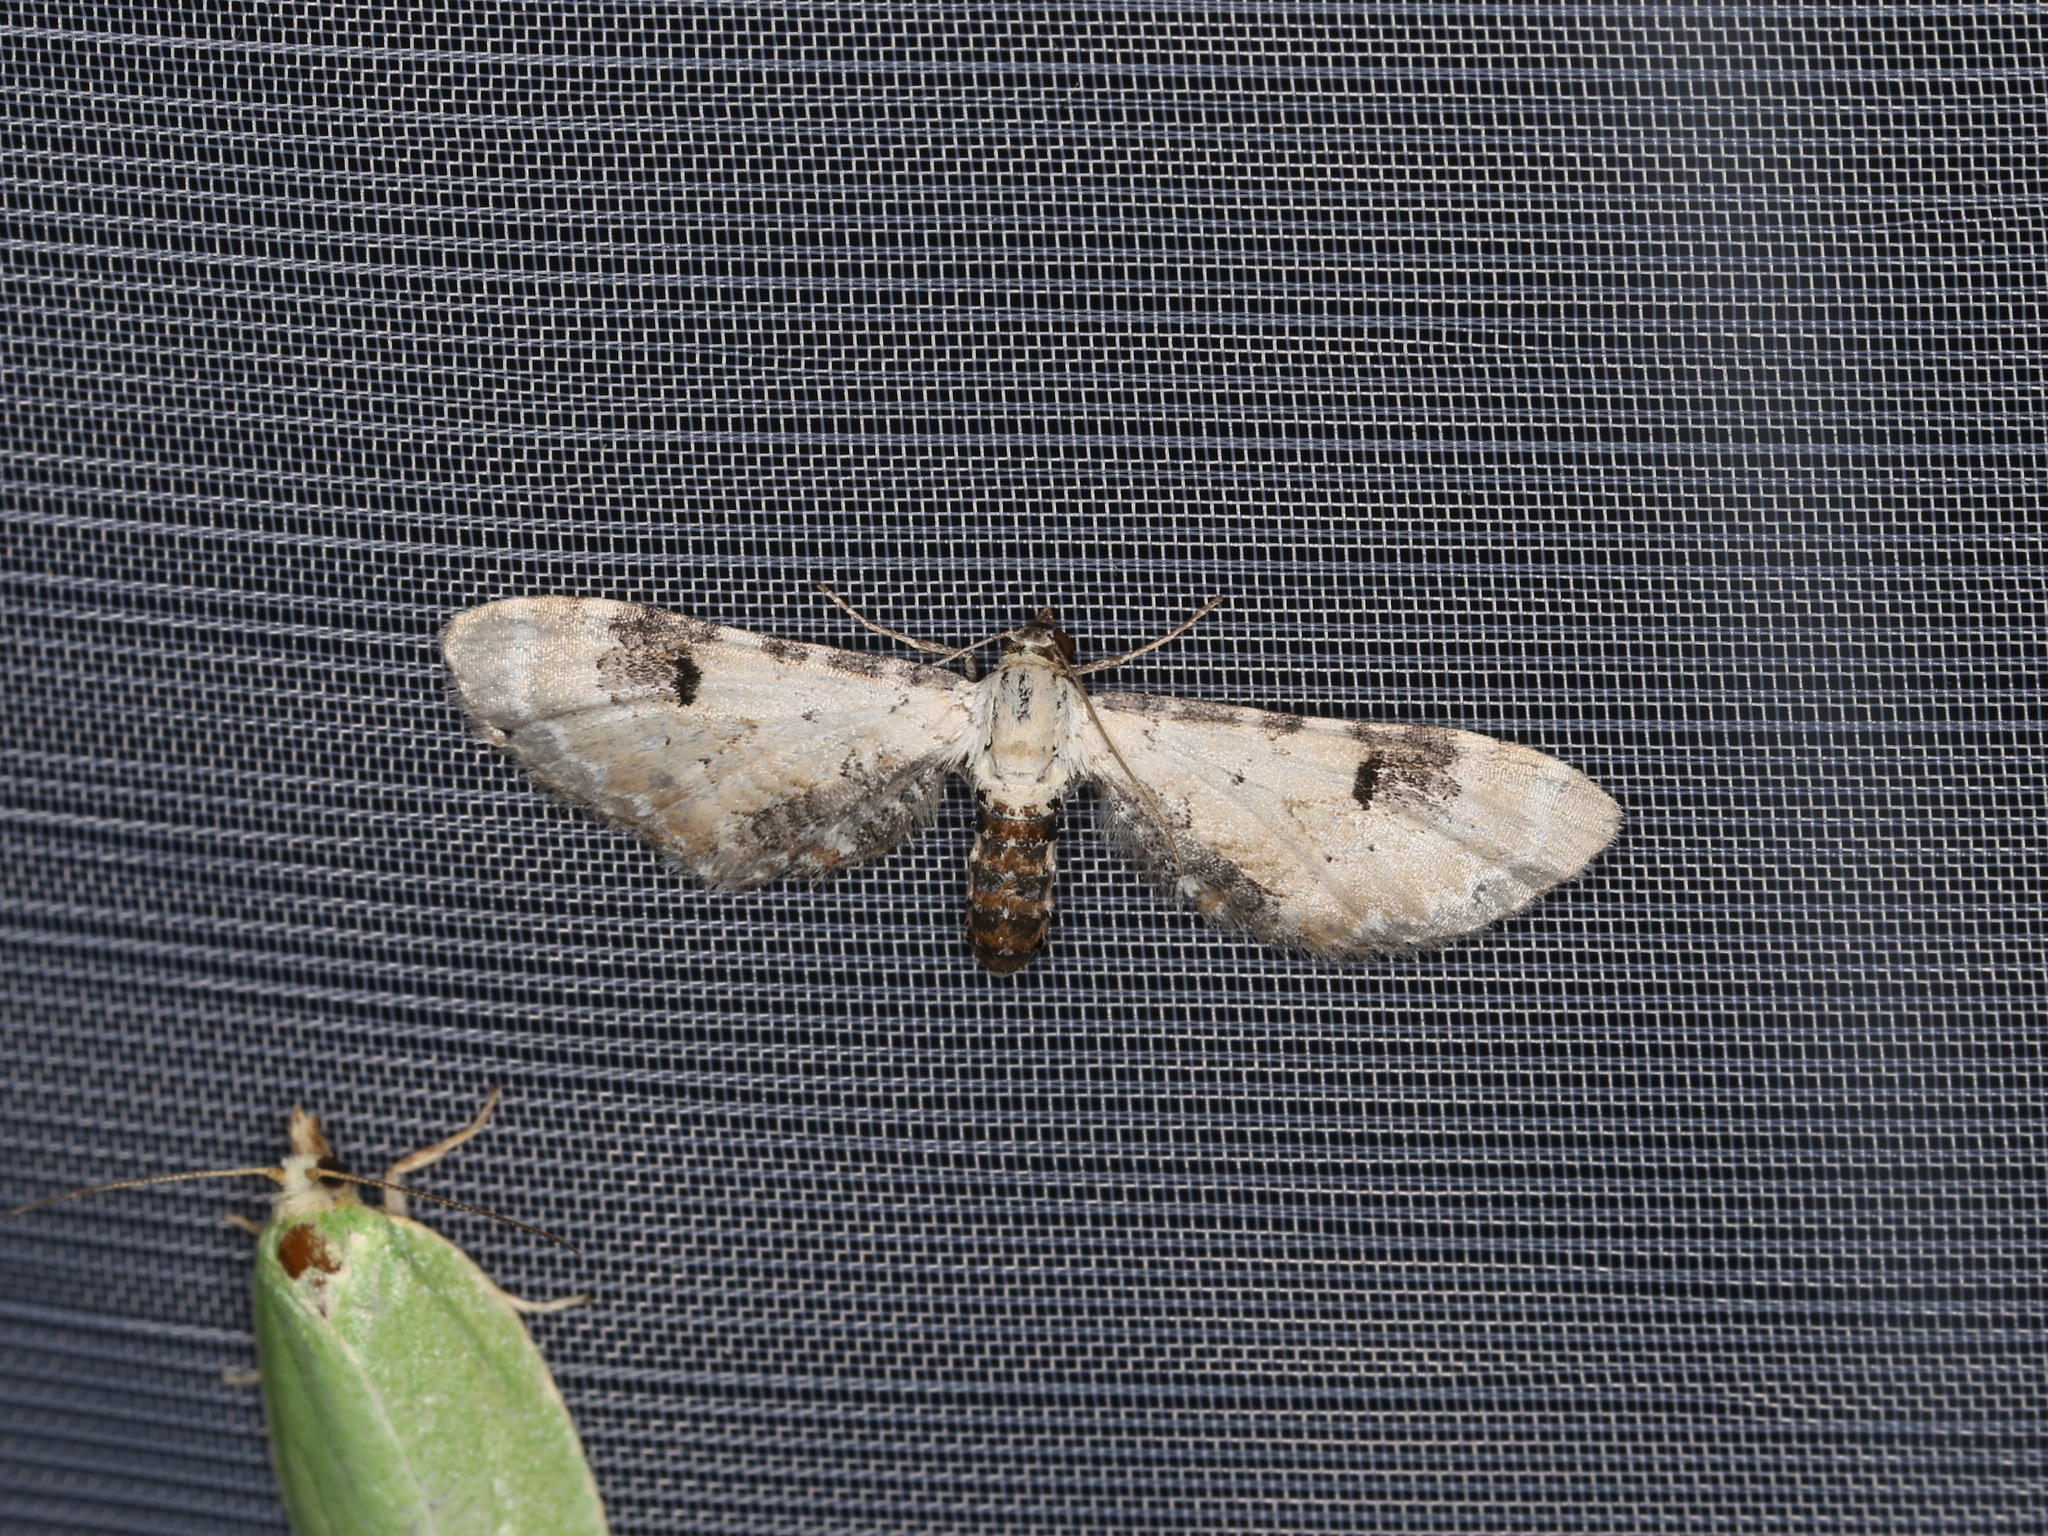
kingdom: Animalia
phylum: Arthropoda
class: Insecta
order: Lepidoptera
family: Geometridae
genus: Eupithecia
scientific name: Eupithecia centaureata
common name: Lime-speck pug
